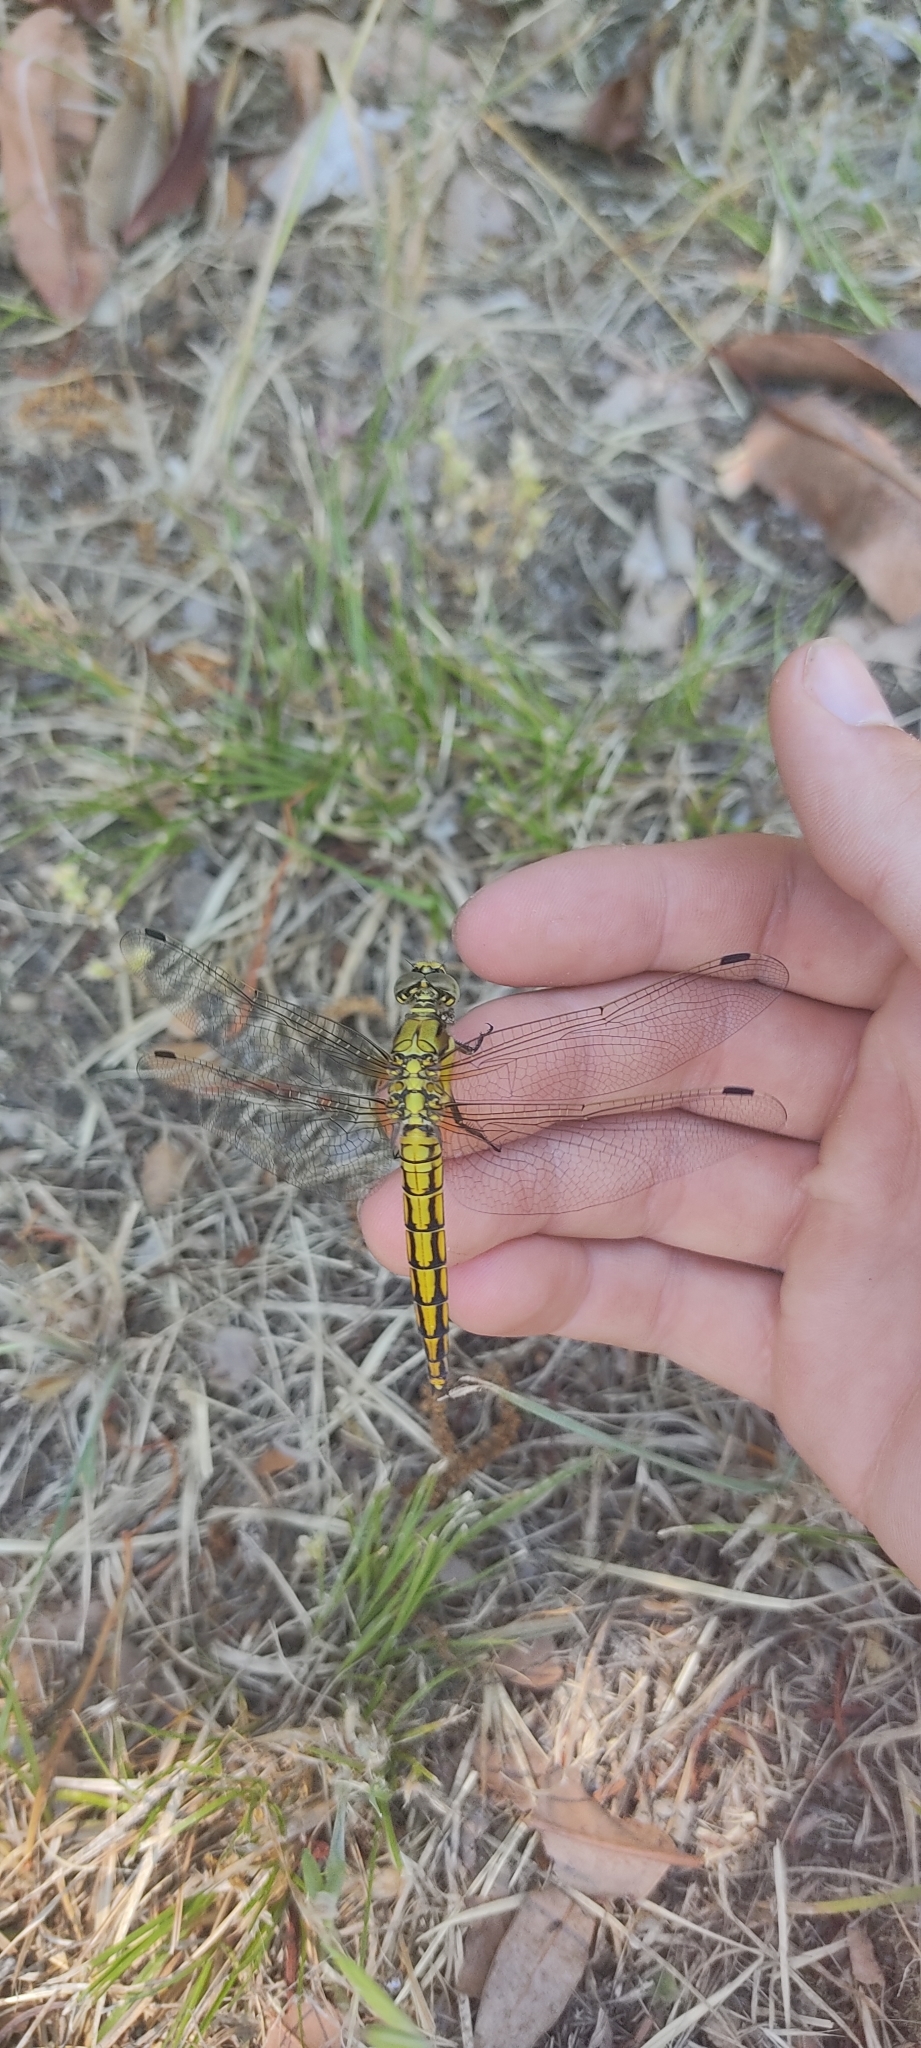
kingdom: Animalia
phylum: Arthropoda
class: Insecta
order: Odonata
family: Libellulidae
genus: Orthetrum
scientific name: Orthetrum cancellatum
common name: Black-tailed skimmer
